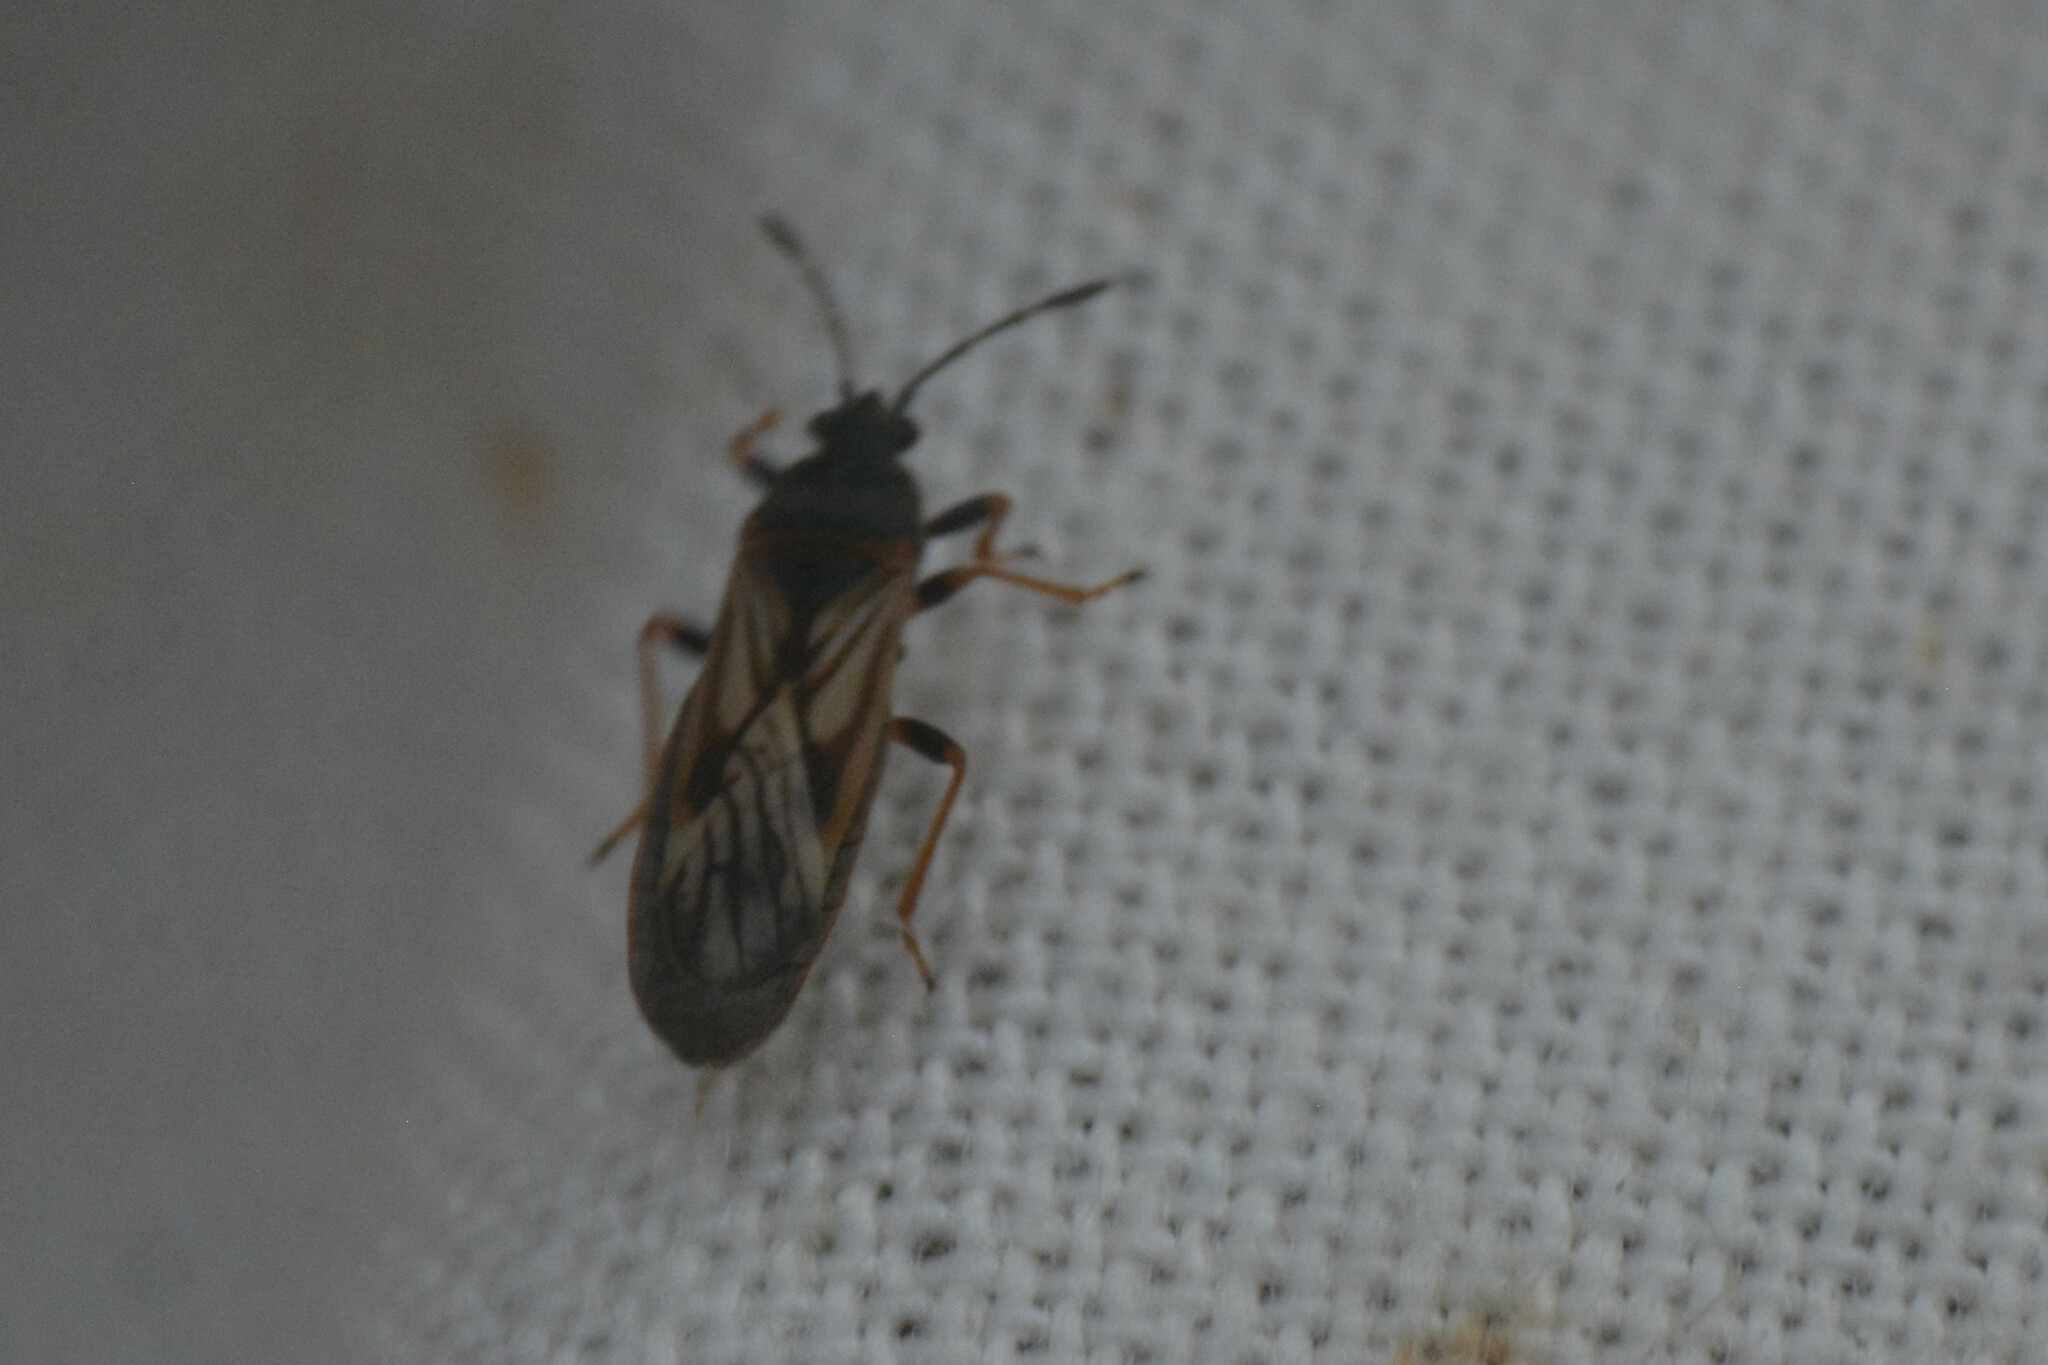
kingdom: Animalia
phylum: Arthropoda
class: Insecta
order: Hemiptera
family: Blissidae
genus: Ischnodemus
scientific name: Ischnodemus sabuleti
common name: European cinchbug
